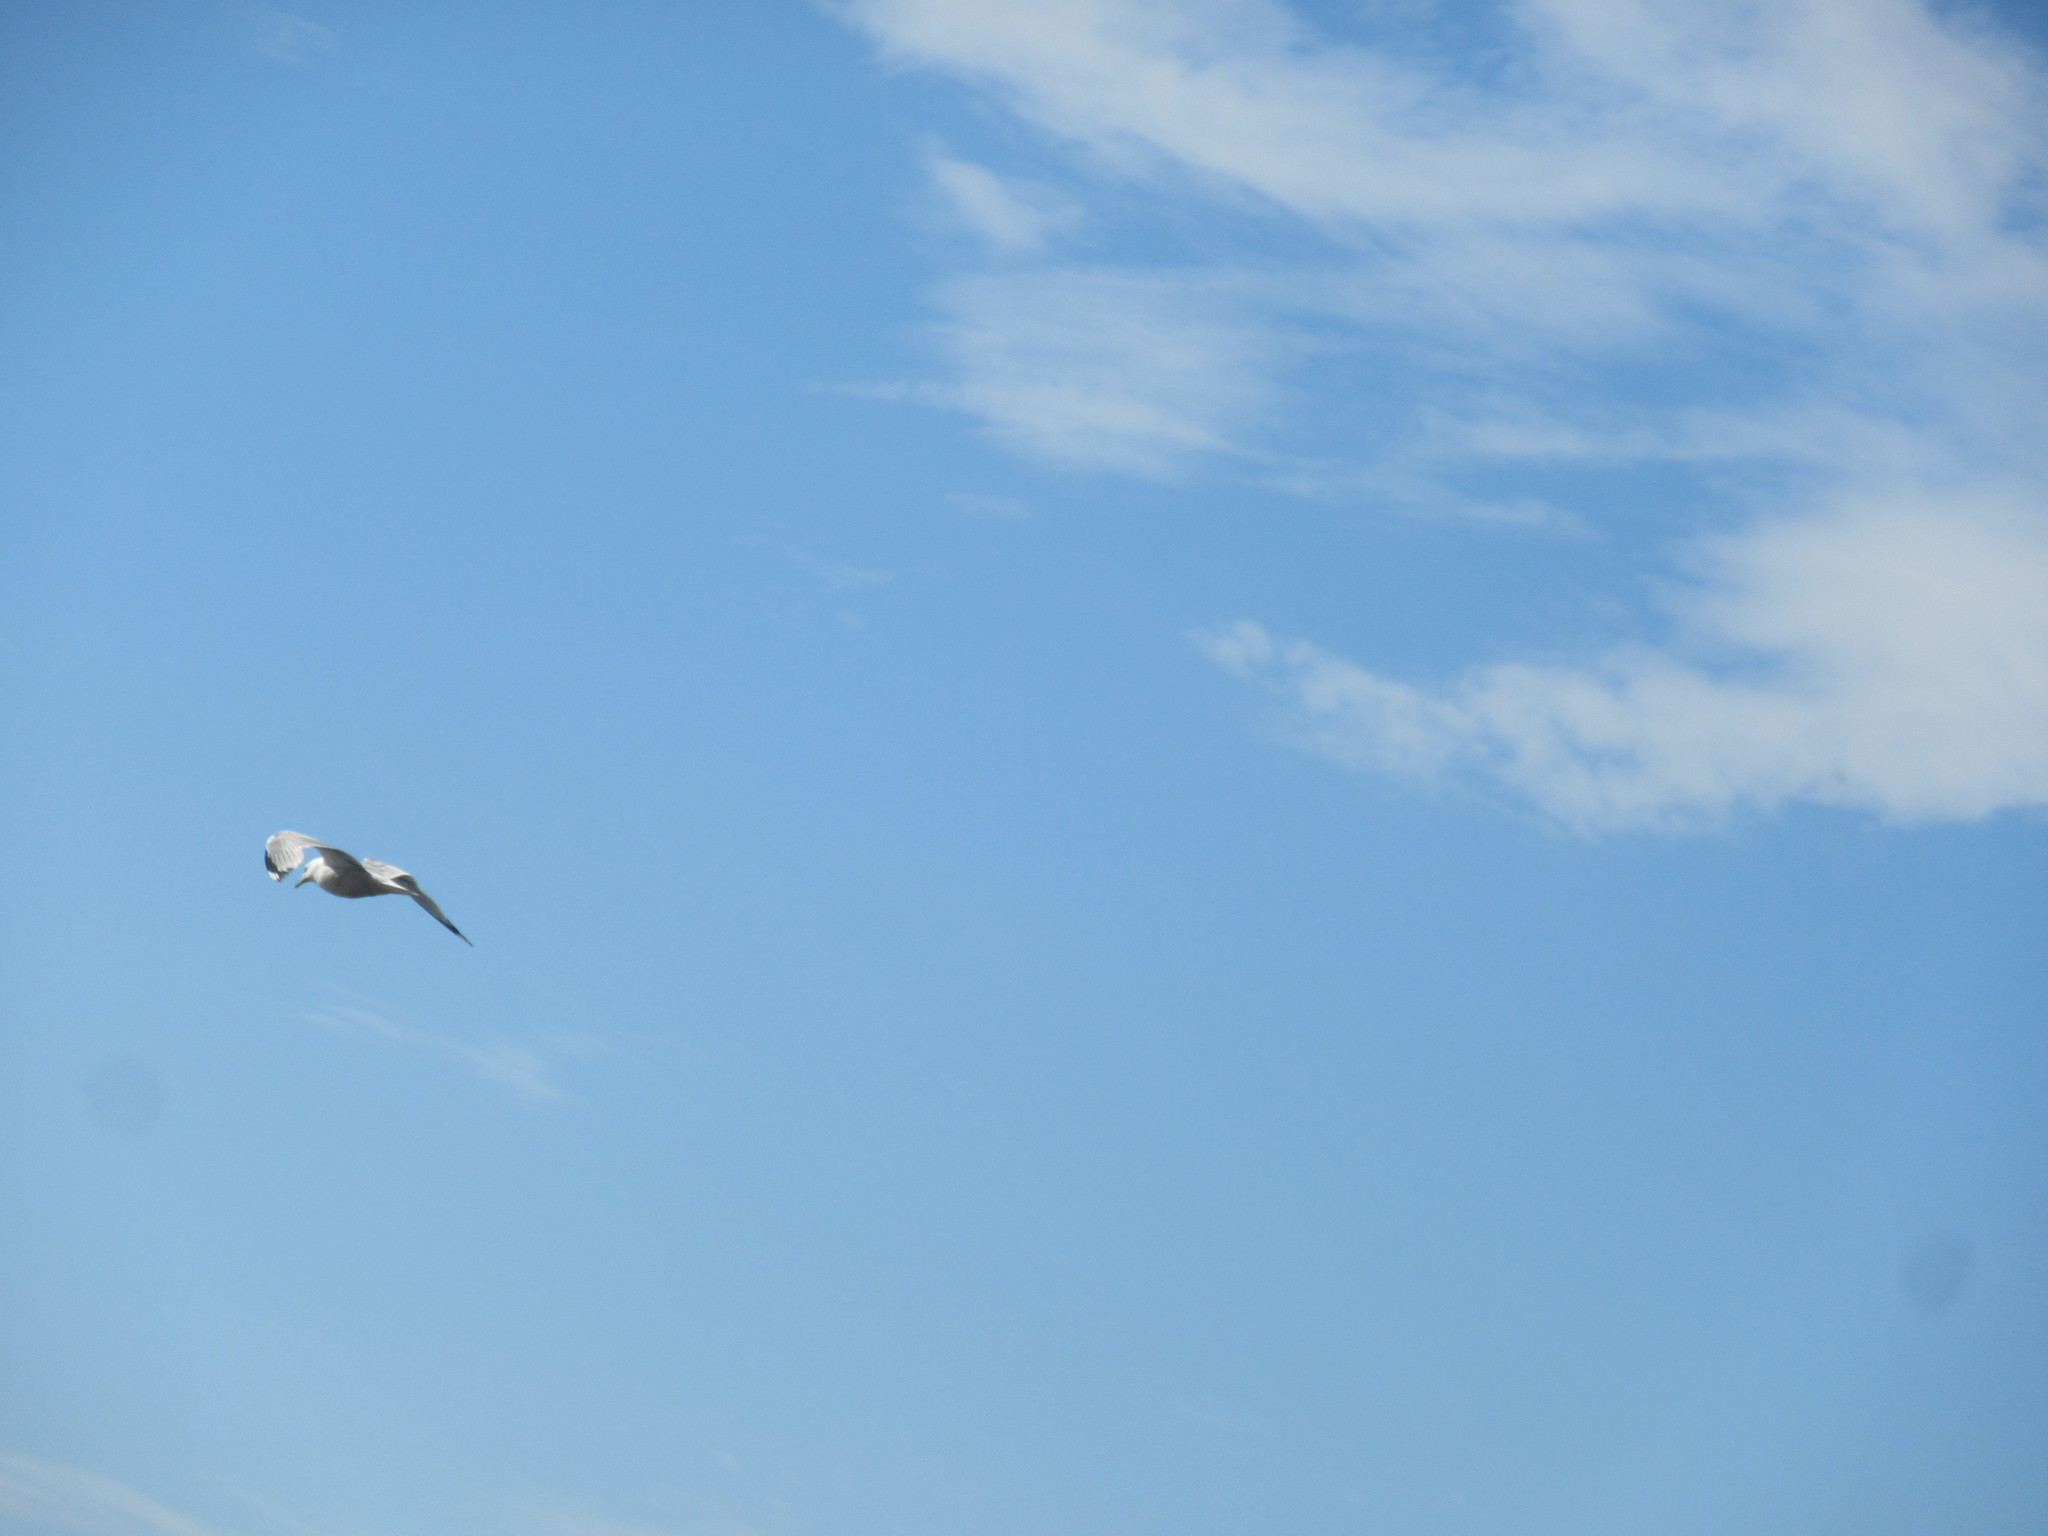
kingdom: Animalia
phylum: Chordata
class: Aves
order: Charadriiformes
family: Laridae
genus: Larus
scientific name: Larus argentatus
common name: Herring gull
